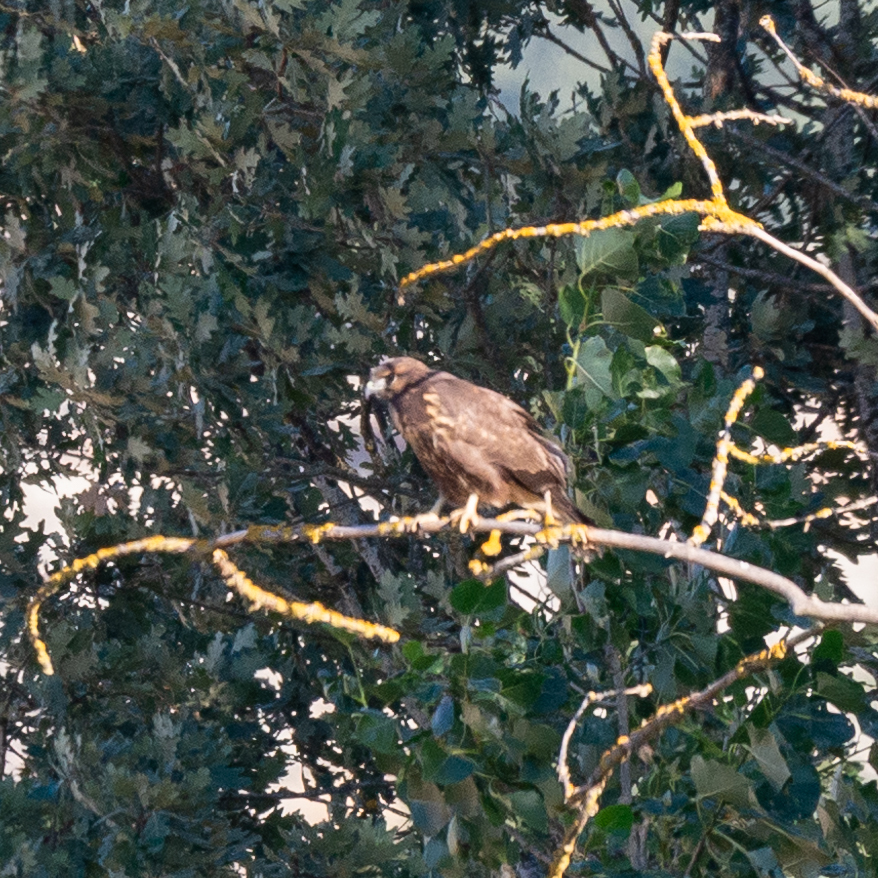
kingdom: Animalia
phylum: Chordata
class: Aves
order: Accipitriformes
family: Accipitridae
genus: Buteo
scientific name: Buteo buteo
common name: Common buzzard
